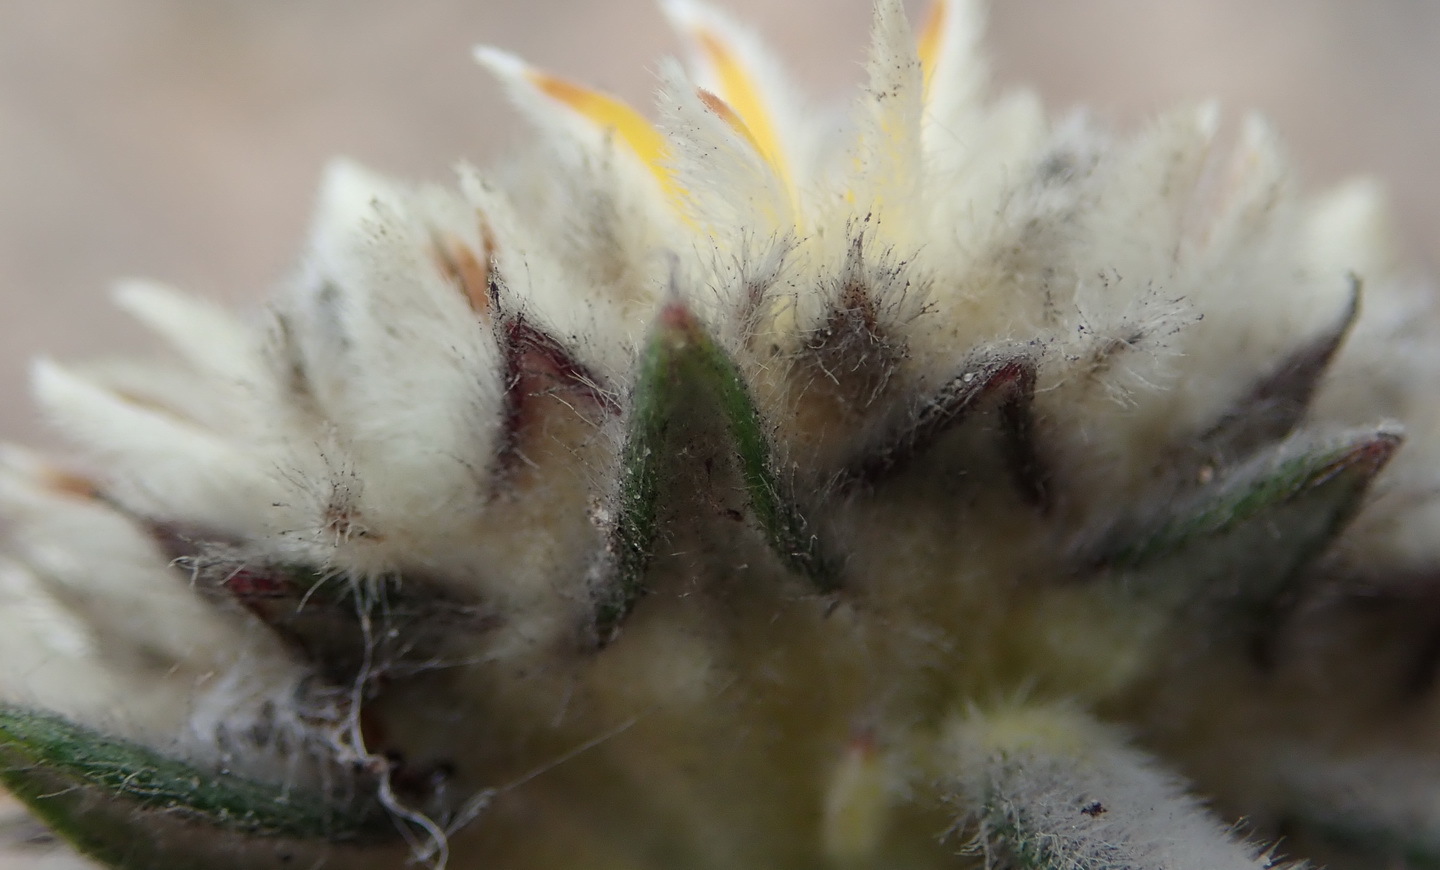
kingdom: Plantae
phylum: Tracheophyta
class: Magnoliopsida
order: Rosales
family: Rhamnaceae
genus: Phylica
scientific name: Phylica propinqua
